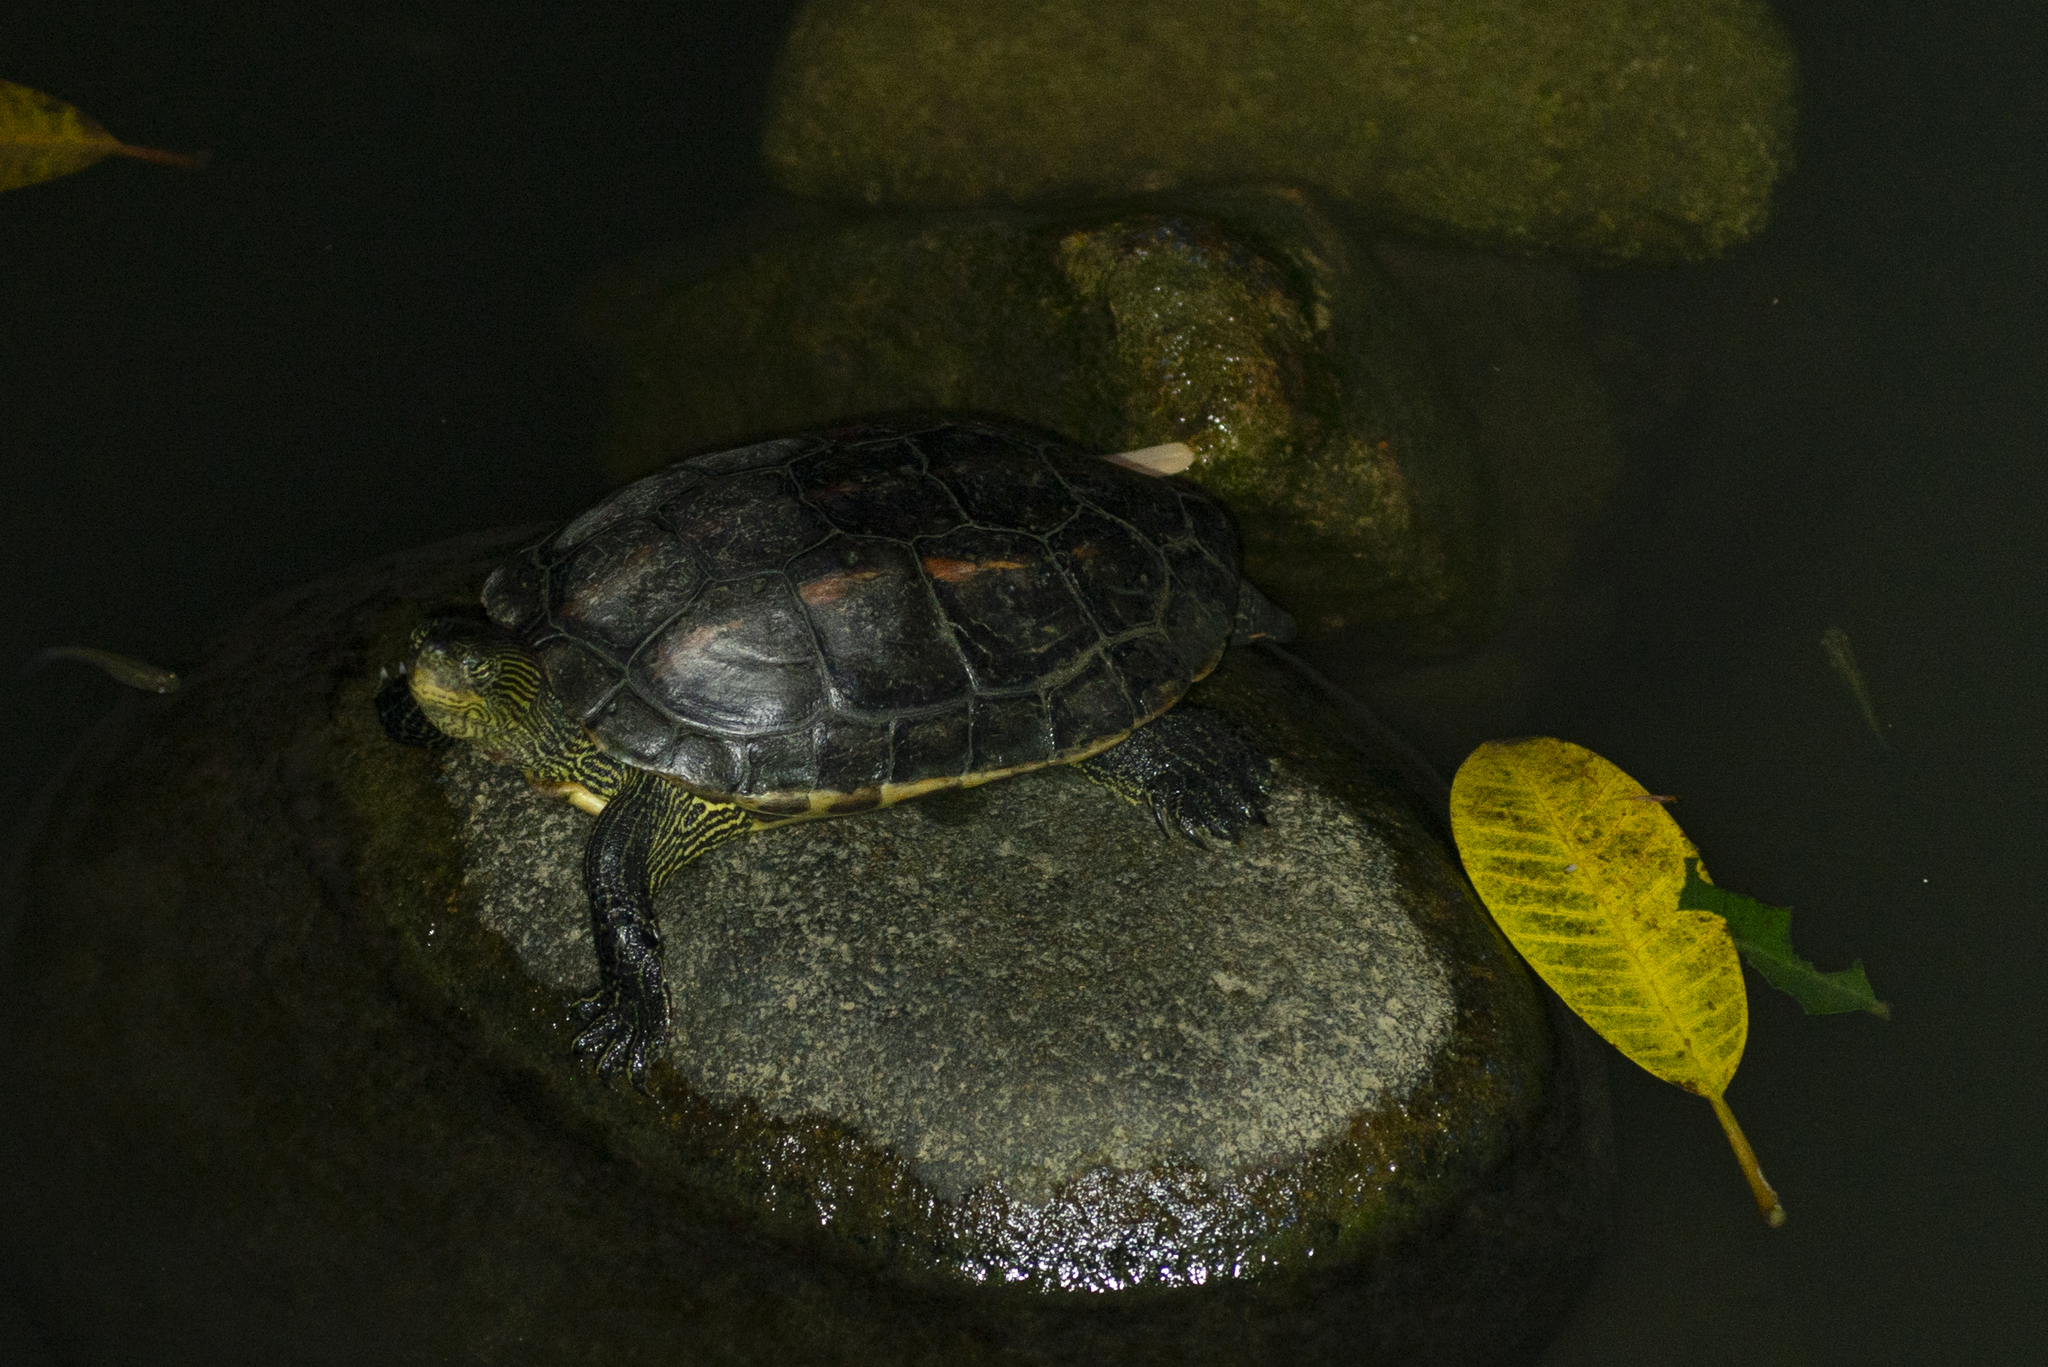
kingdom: Animalia
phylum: Chordata
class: Testudines
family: Geoemydidae
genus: Mauremys
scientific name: Mauremys sinensis
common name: Chinese stripe-necked turtle
